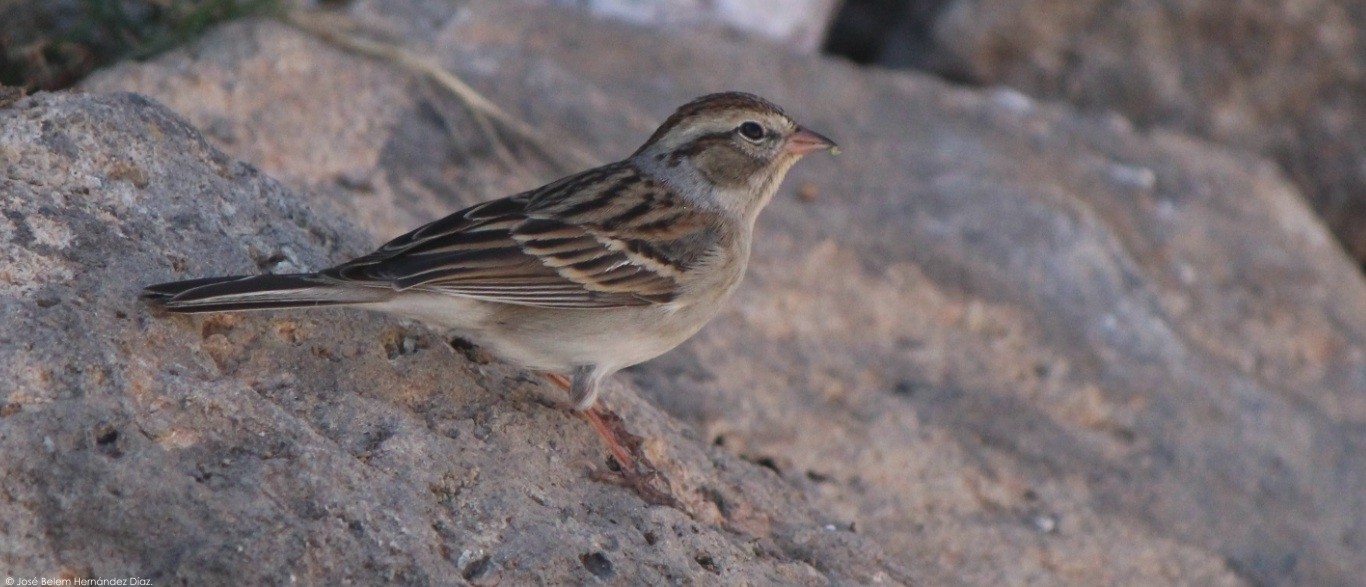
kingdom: Animalia
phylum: Chordata
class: Aves
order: Passeriformes
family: Passerellidae
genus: Spizella
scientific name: Spizella passerina
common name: Chipping sparrow
